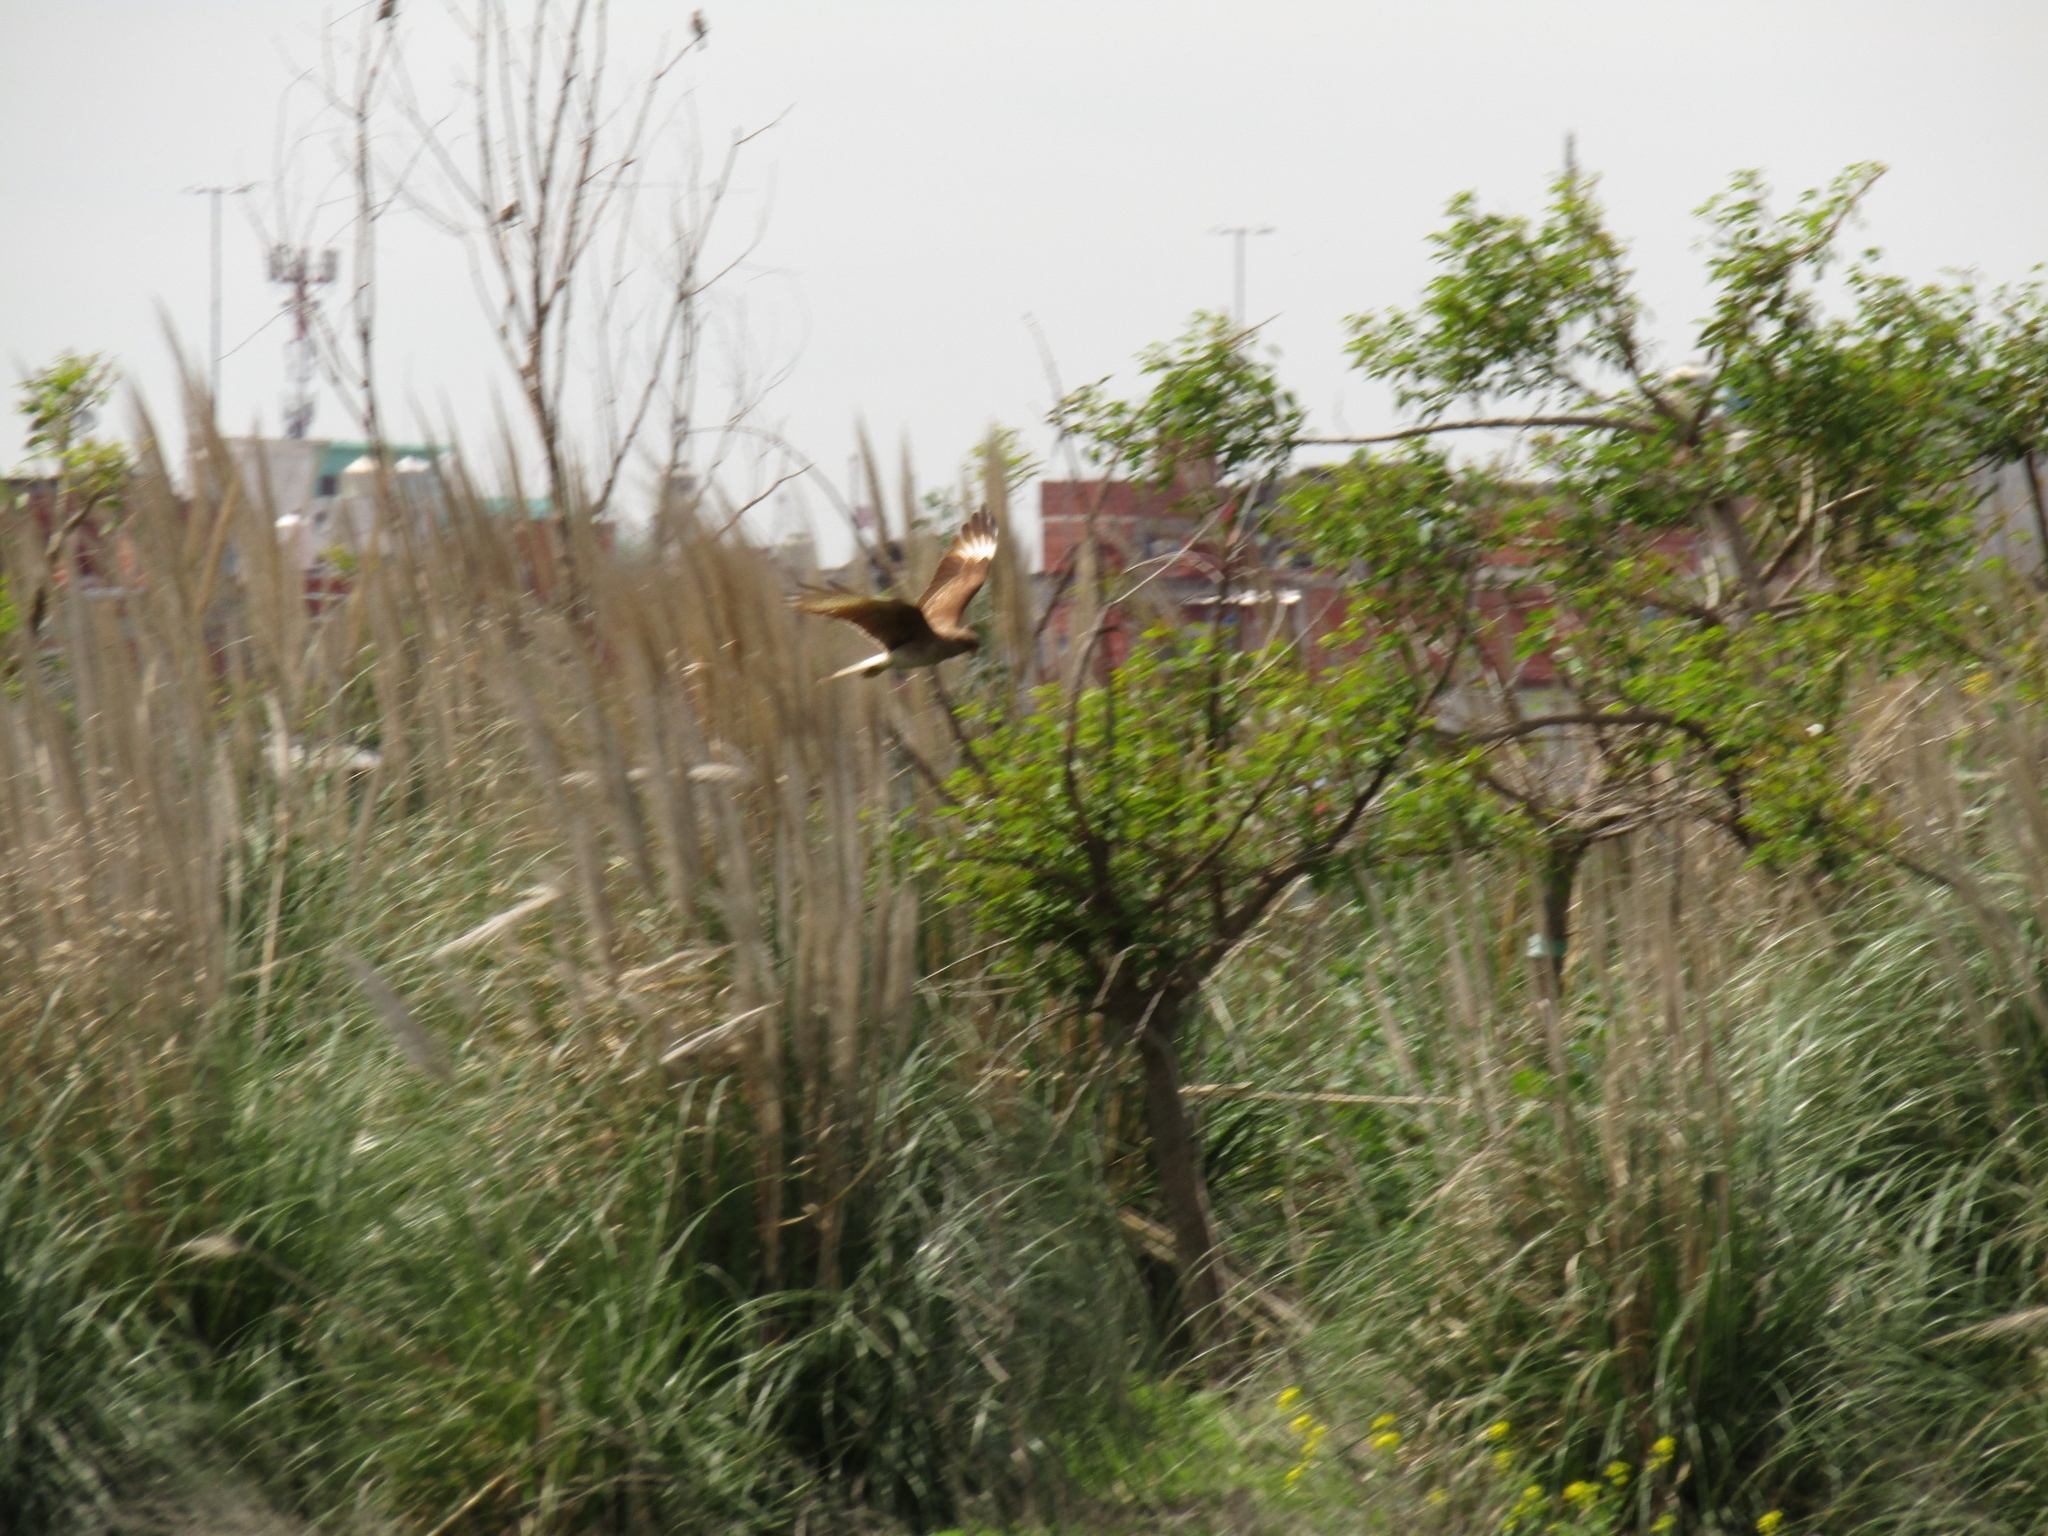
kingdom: Animalia
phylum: Chordata
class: Aves
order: Falconiformes
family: Falconidae
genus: Daptrius
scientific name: Daptrius
